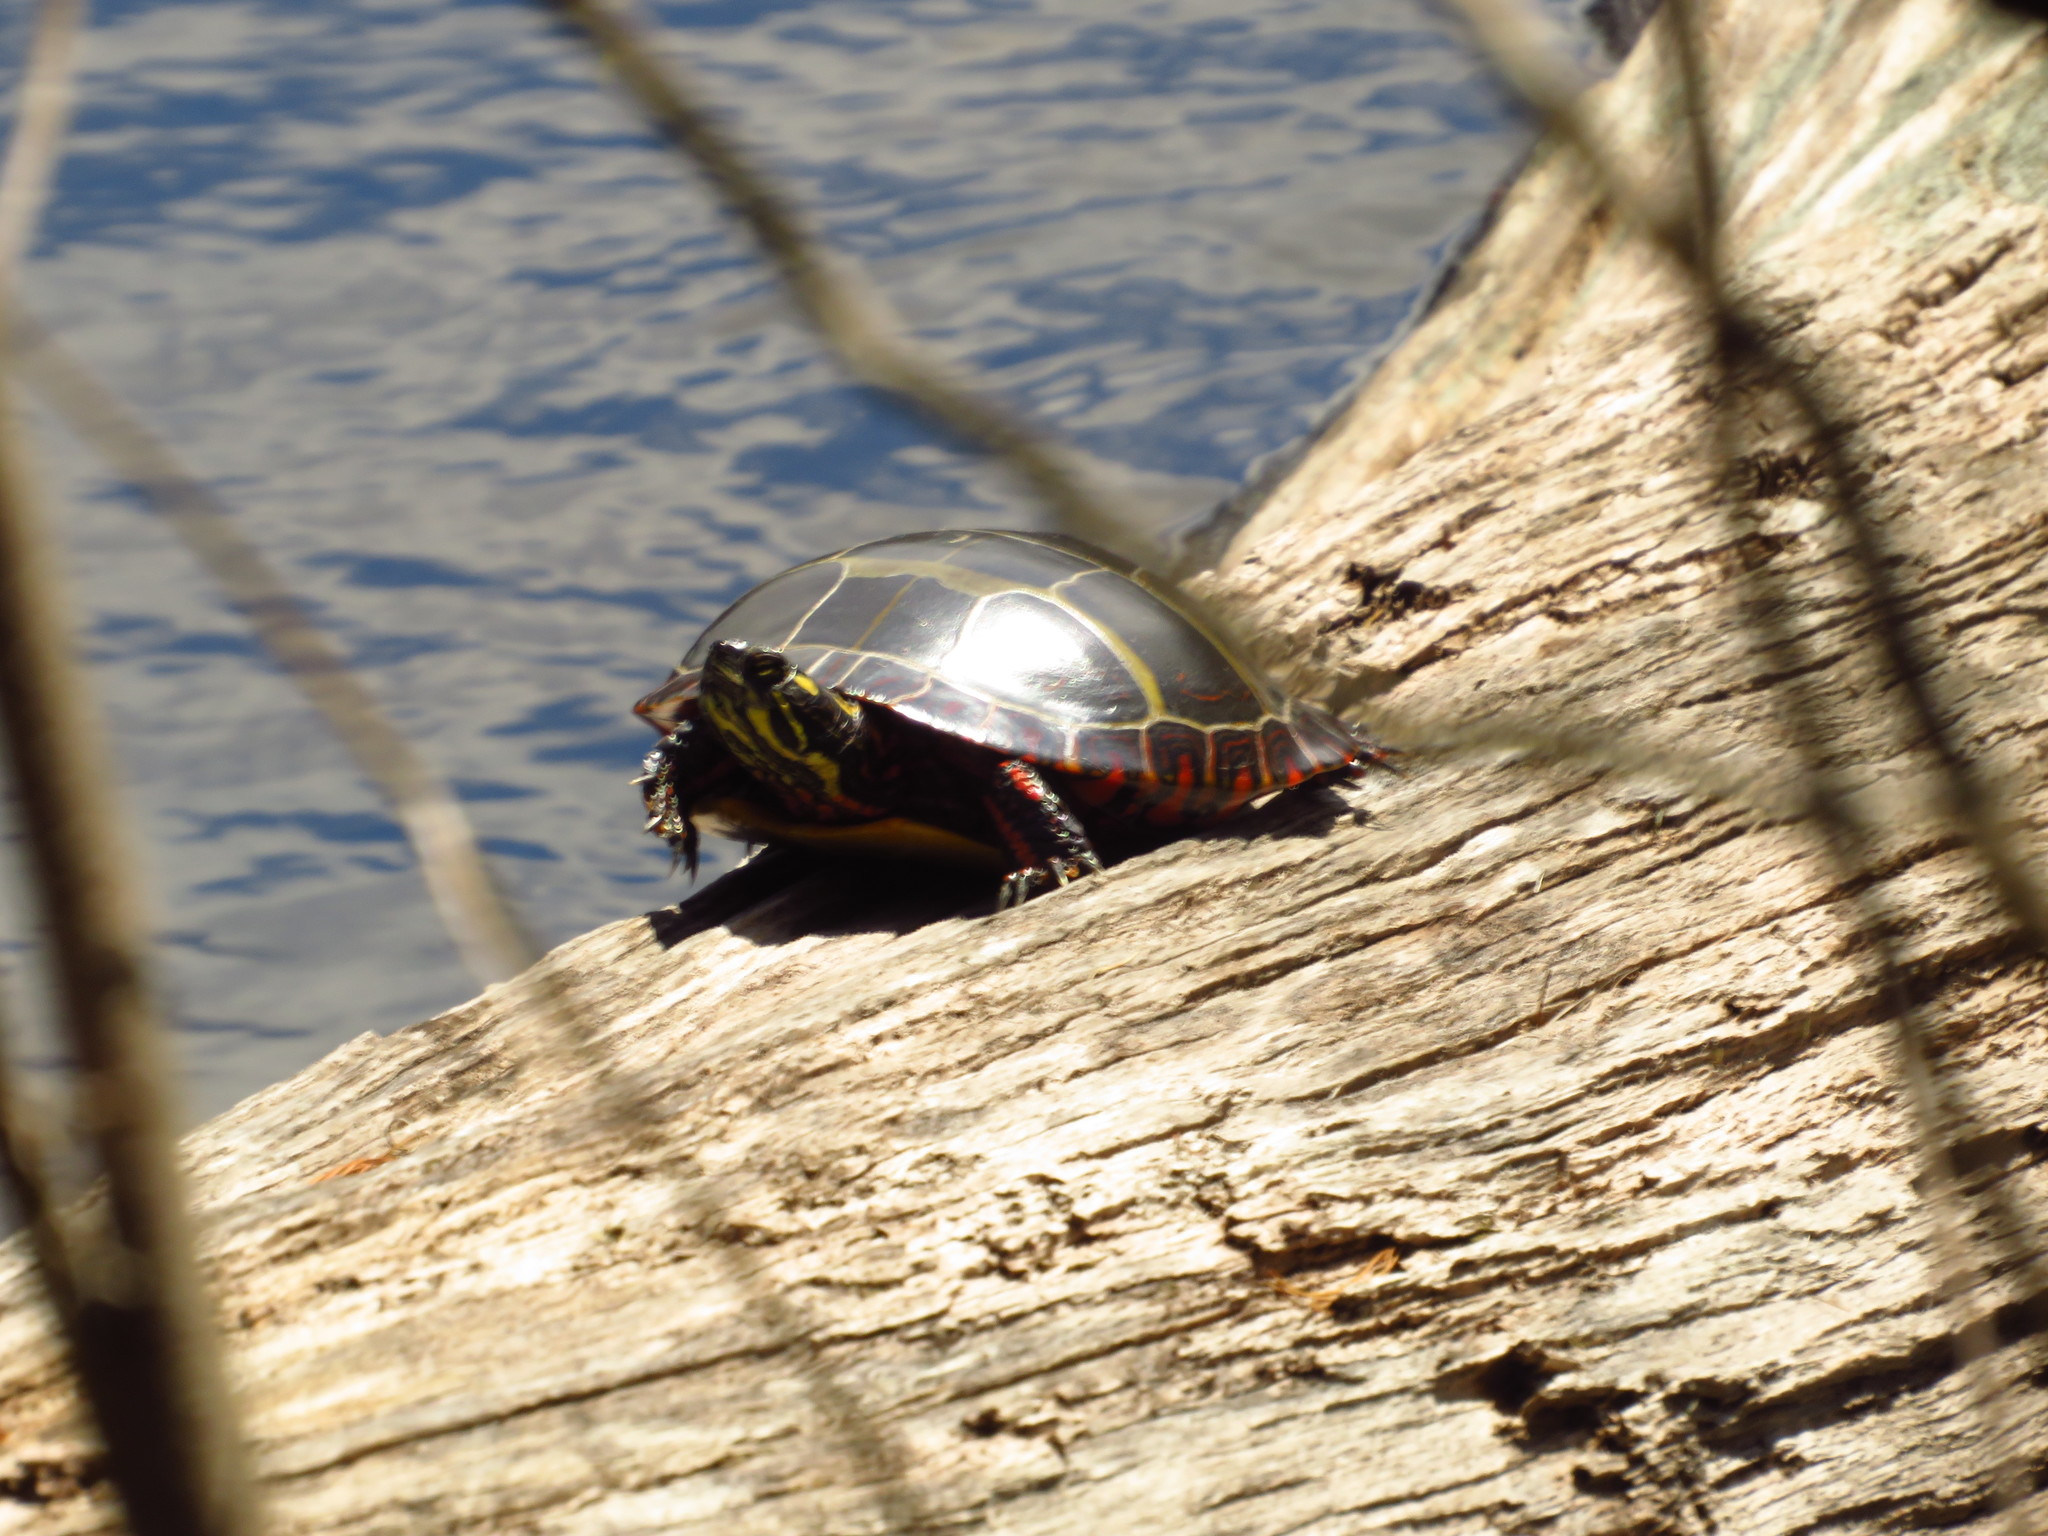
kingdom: Animalia
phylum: Chordata
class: Testudines
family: Emydidae
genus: Chrysemys
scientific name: Chrysemys picta
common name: Painted turtle
